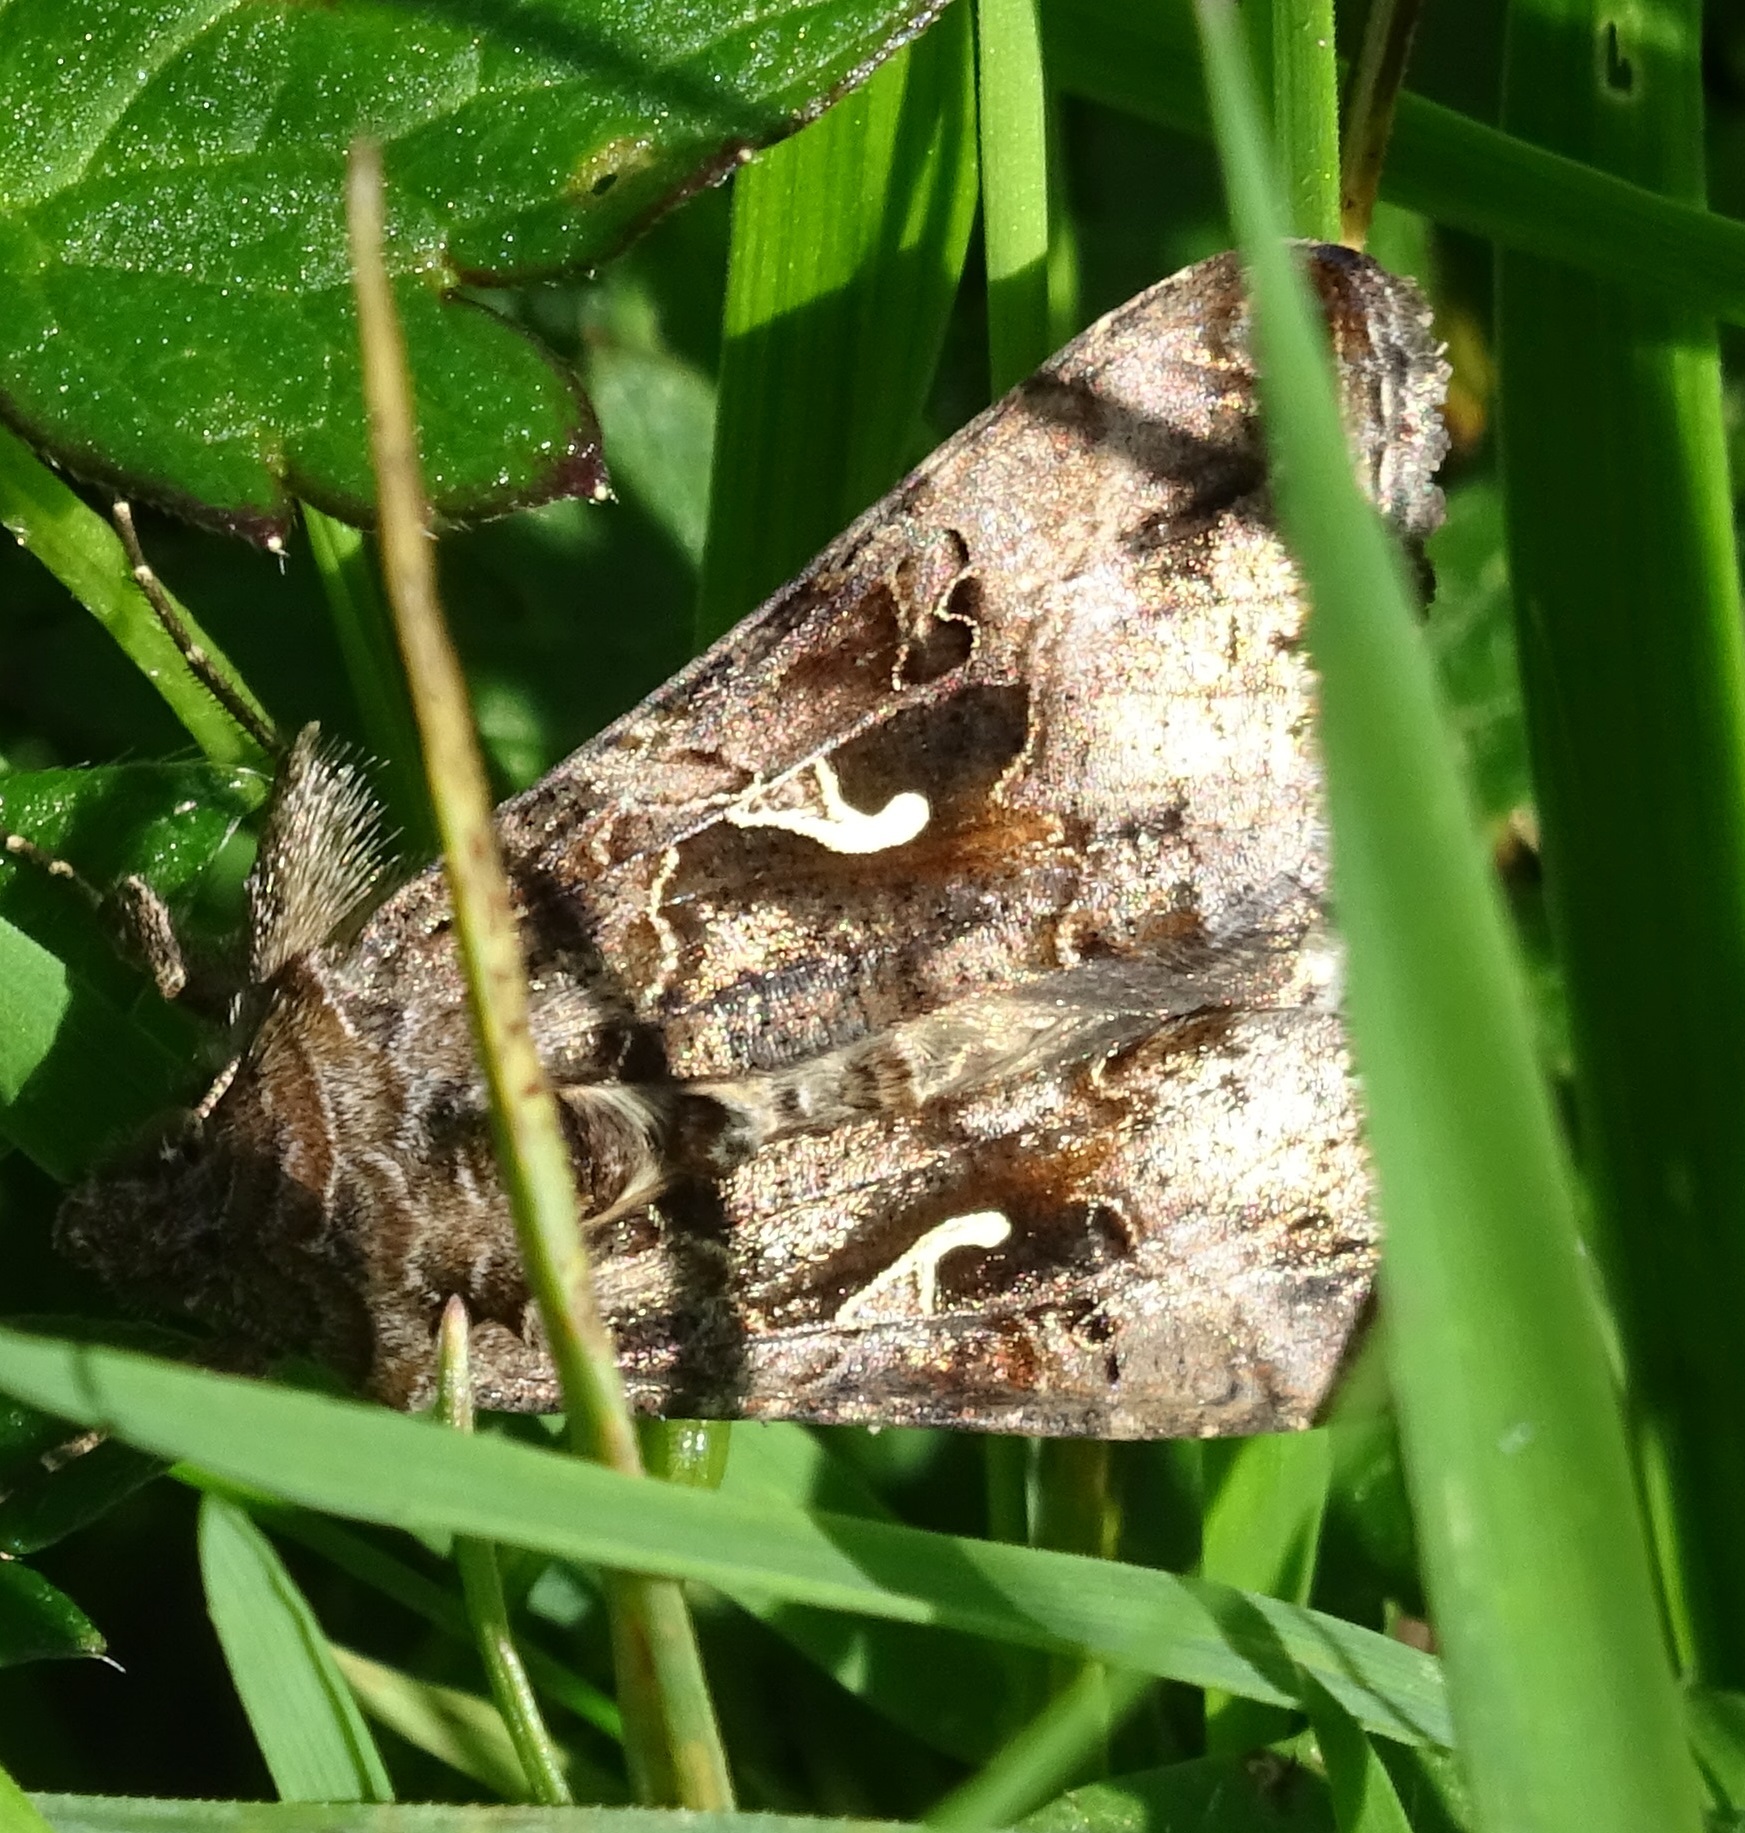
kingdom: Animalia
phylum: Arthropoda
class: Insecta
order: Lepidoptera
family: Noctuidae
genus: Autographa
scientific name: Autographa gamma
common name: Silver y
